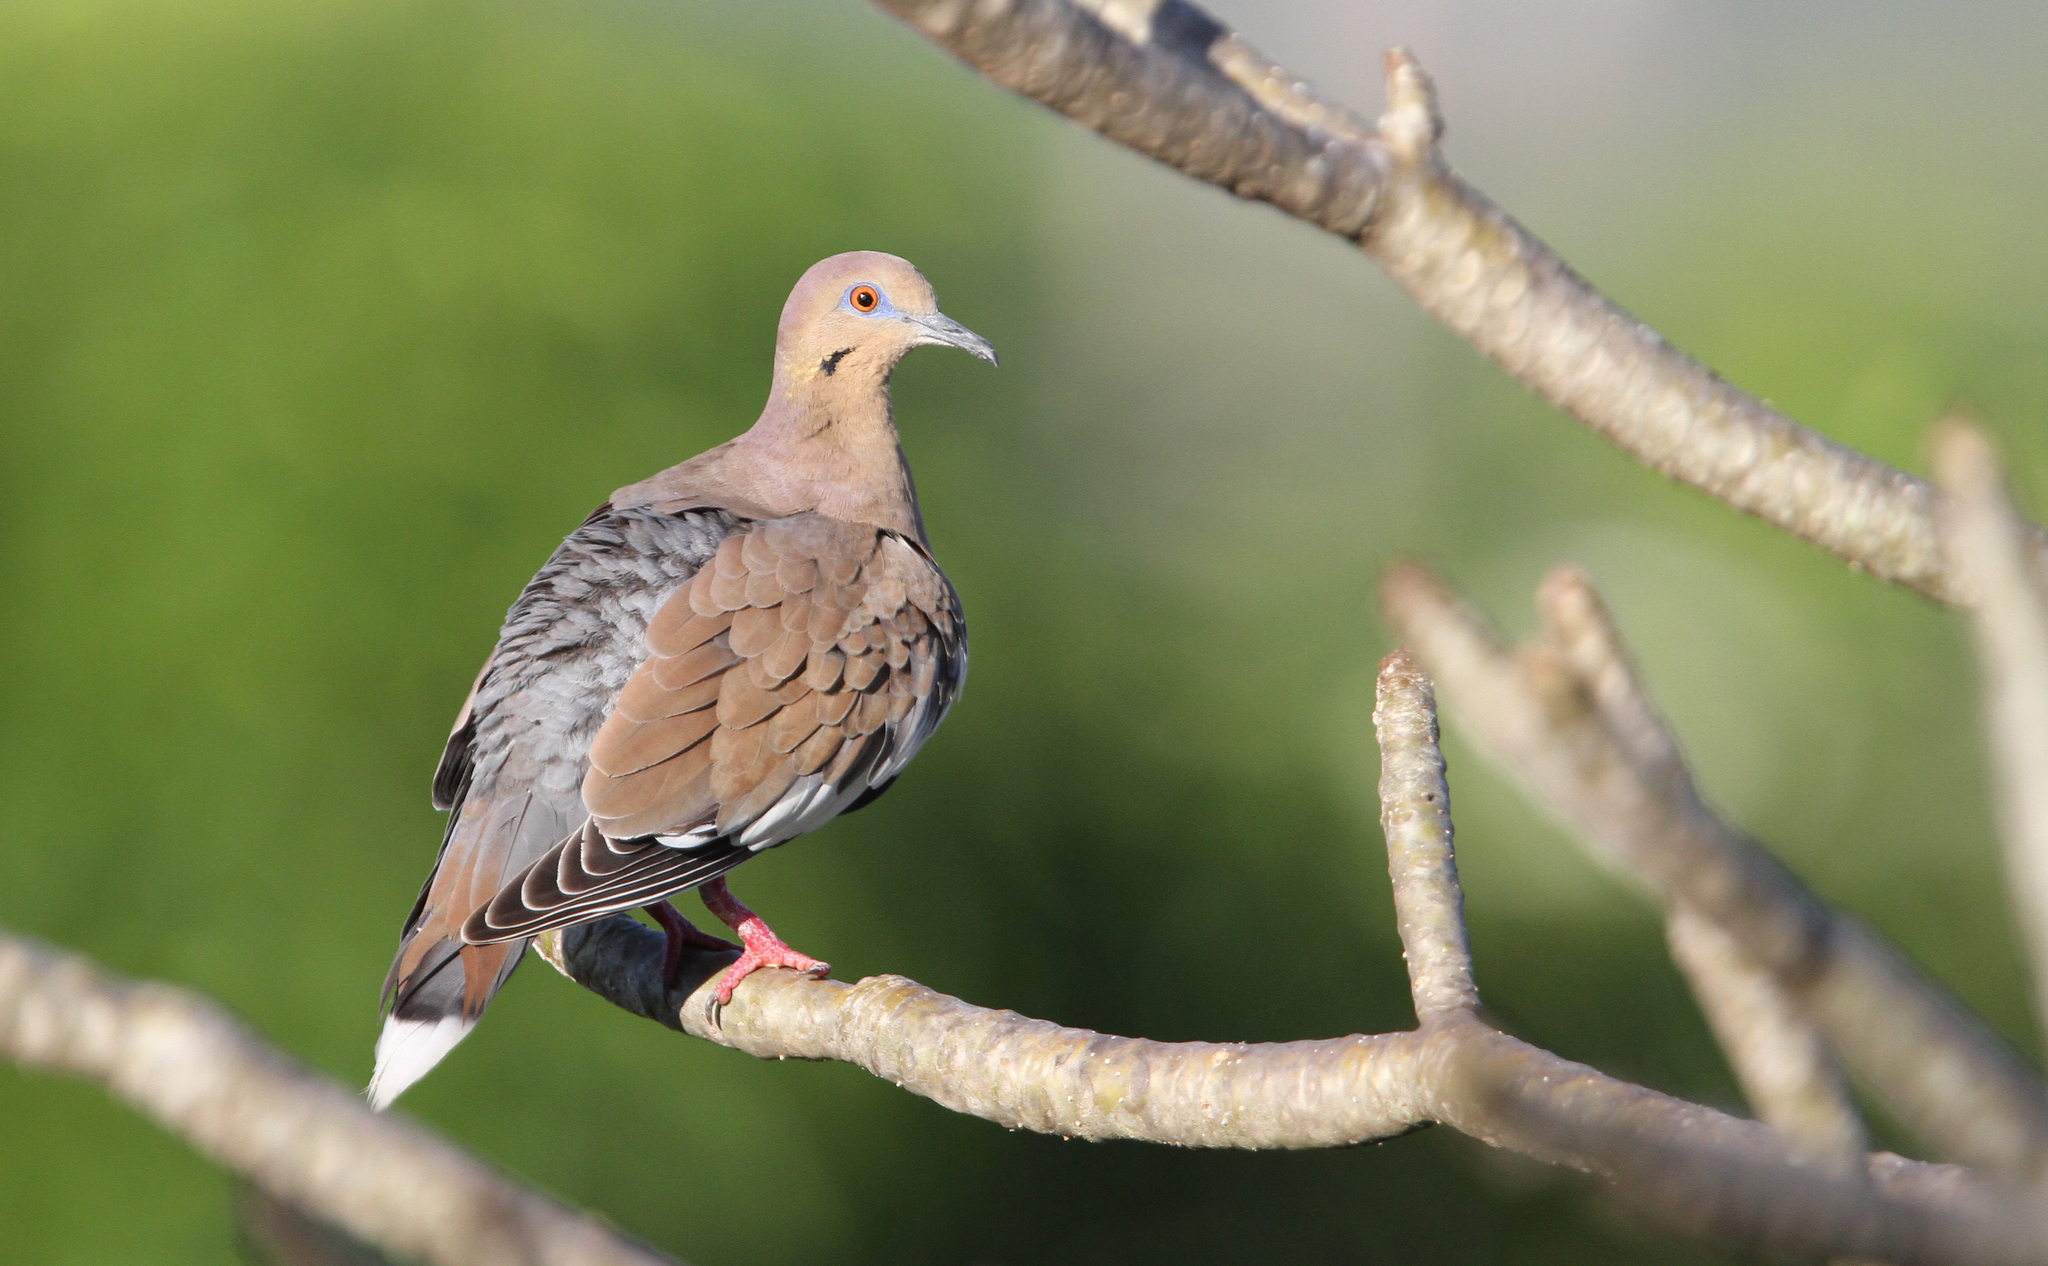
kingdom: Animalia
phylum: Chordata
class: Aves
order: Columbiformes
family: Columbidae
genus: Zenaida
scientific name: Zenaida asiatica
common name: White-winged dove
